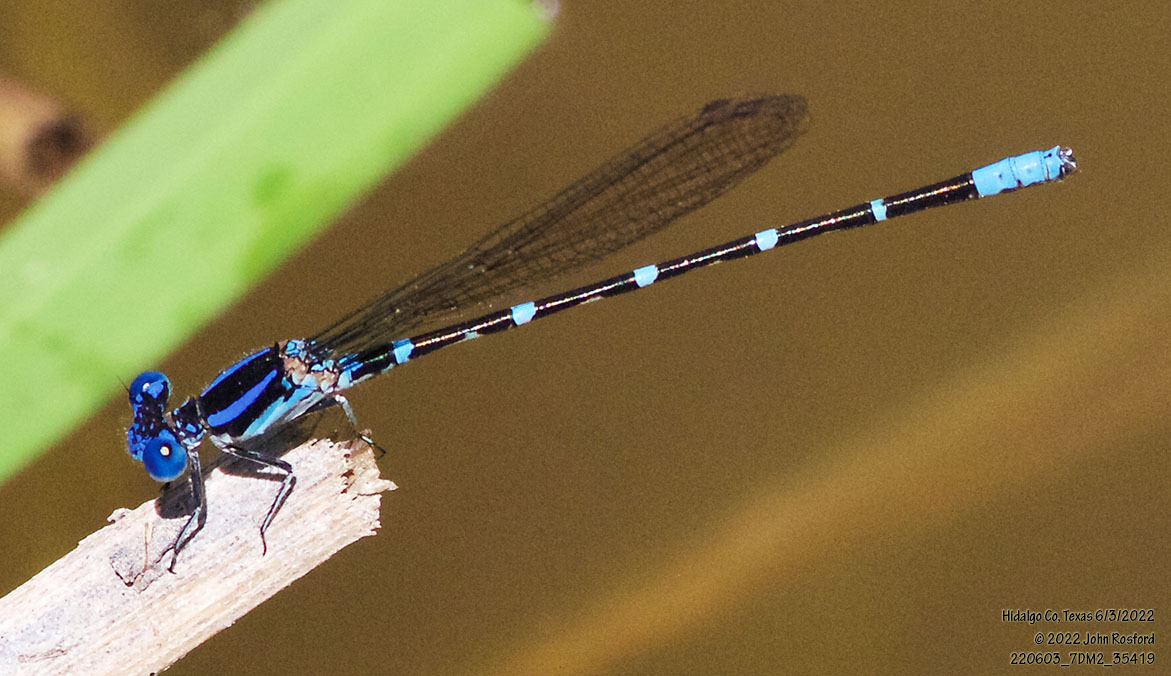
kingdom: Animalia
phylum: Arthropoda
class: Insecta
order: Odonata
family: Coenagrionidae
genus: Argia
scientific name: Argia sedula
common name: Blue-ringed dancer
